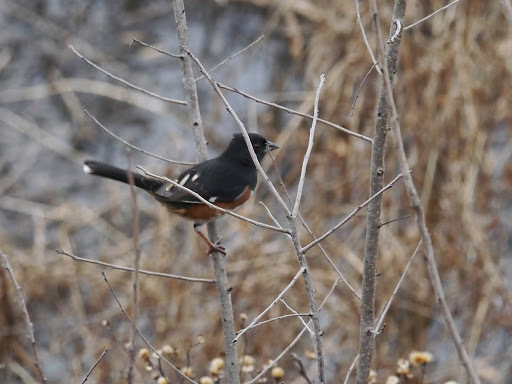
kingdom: Animalia
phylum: Chordata
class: Aves
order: Passeriformes
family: Passerellidae
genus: Pipilo
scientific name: Pipilo erythrophthalmus
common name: Eastern towhee
